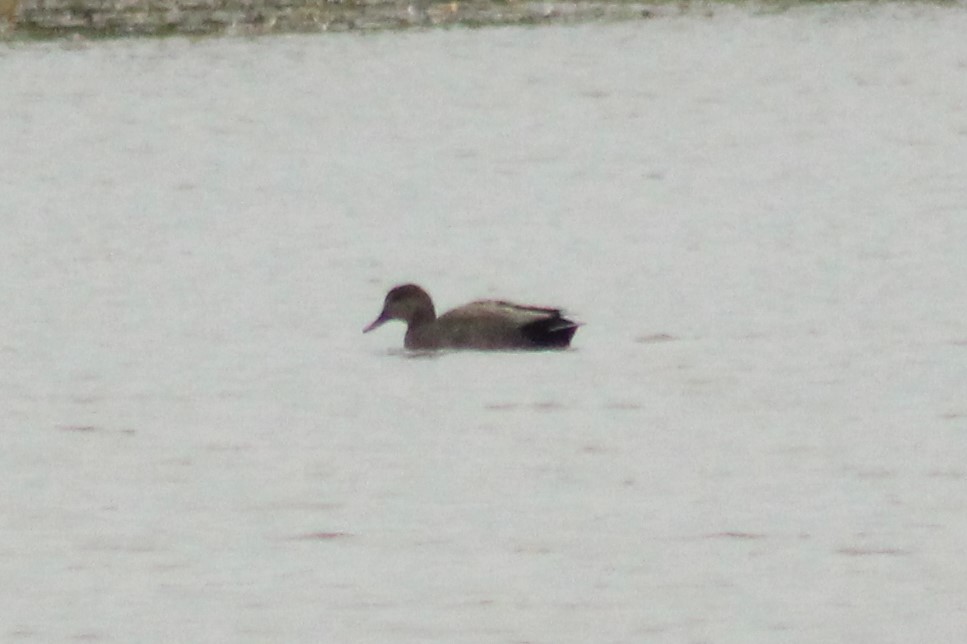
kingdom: Animalia
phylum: Chordata
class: Aves
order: Anseriformes
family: Anatidae
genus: Mareca
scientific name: Mareca strepera
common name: Gadwall
